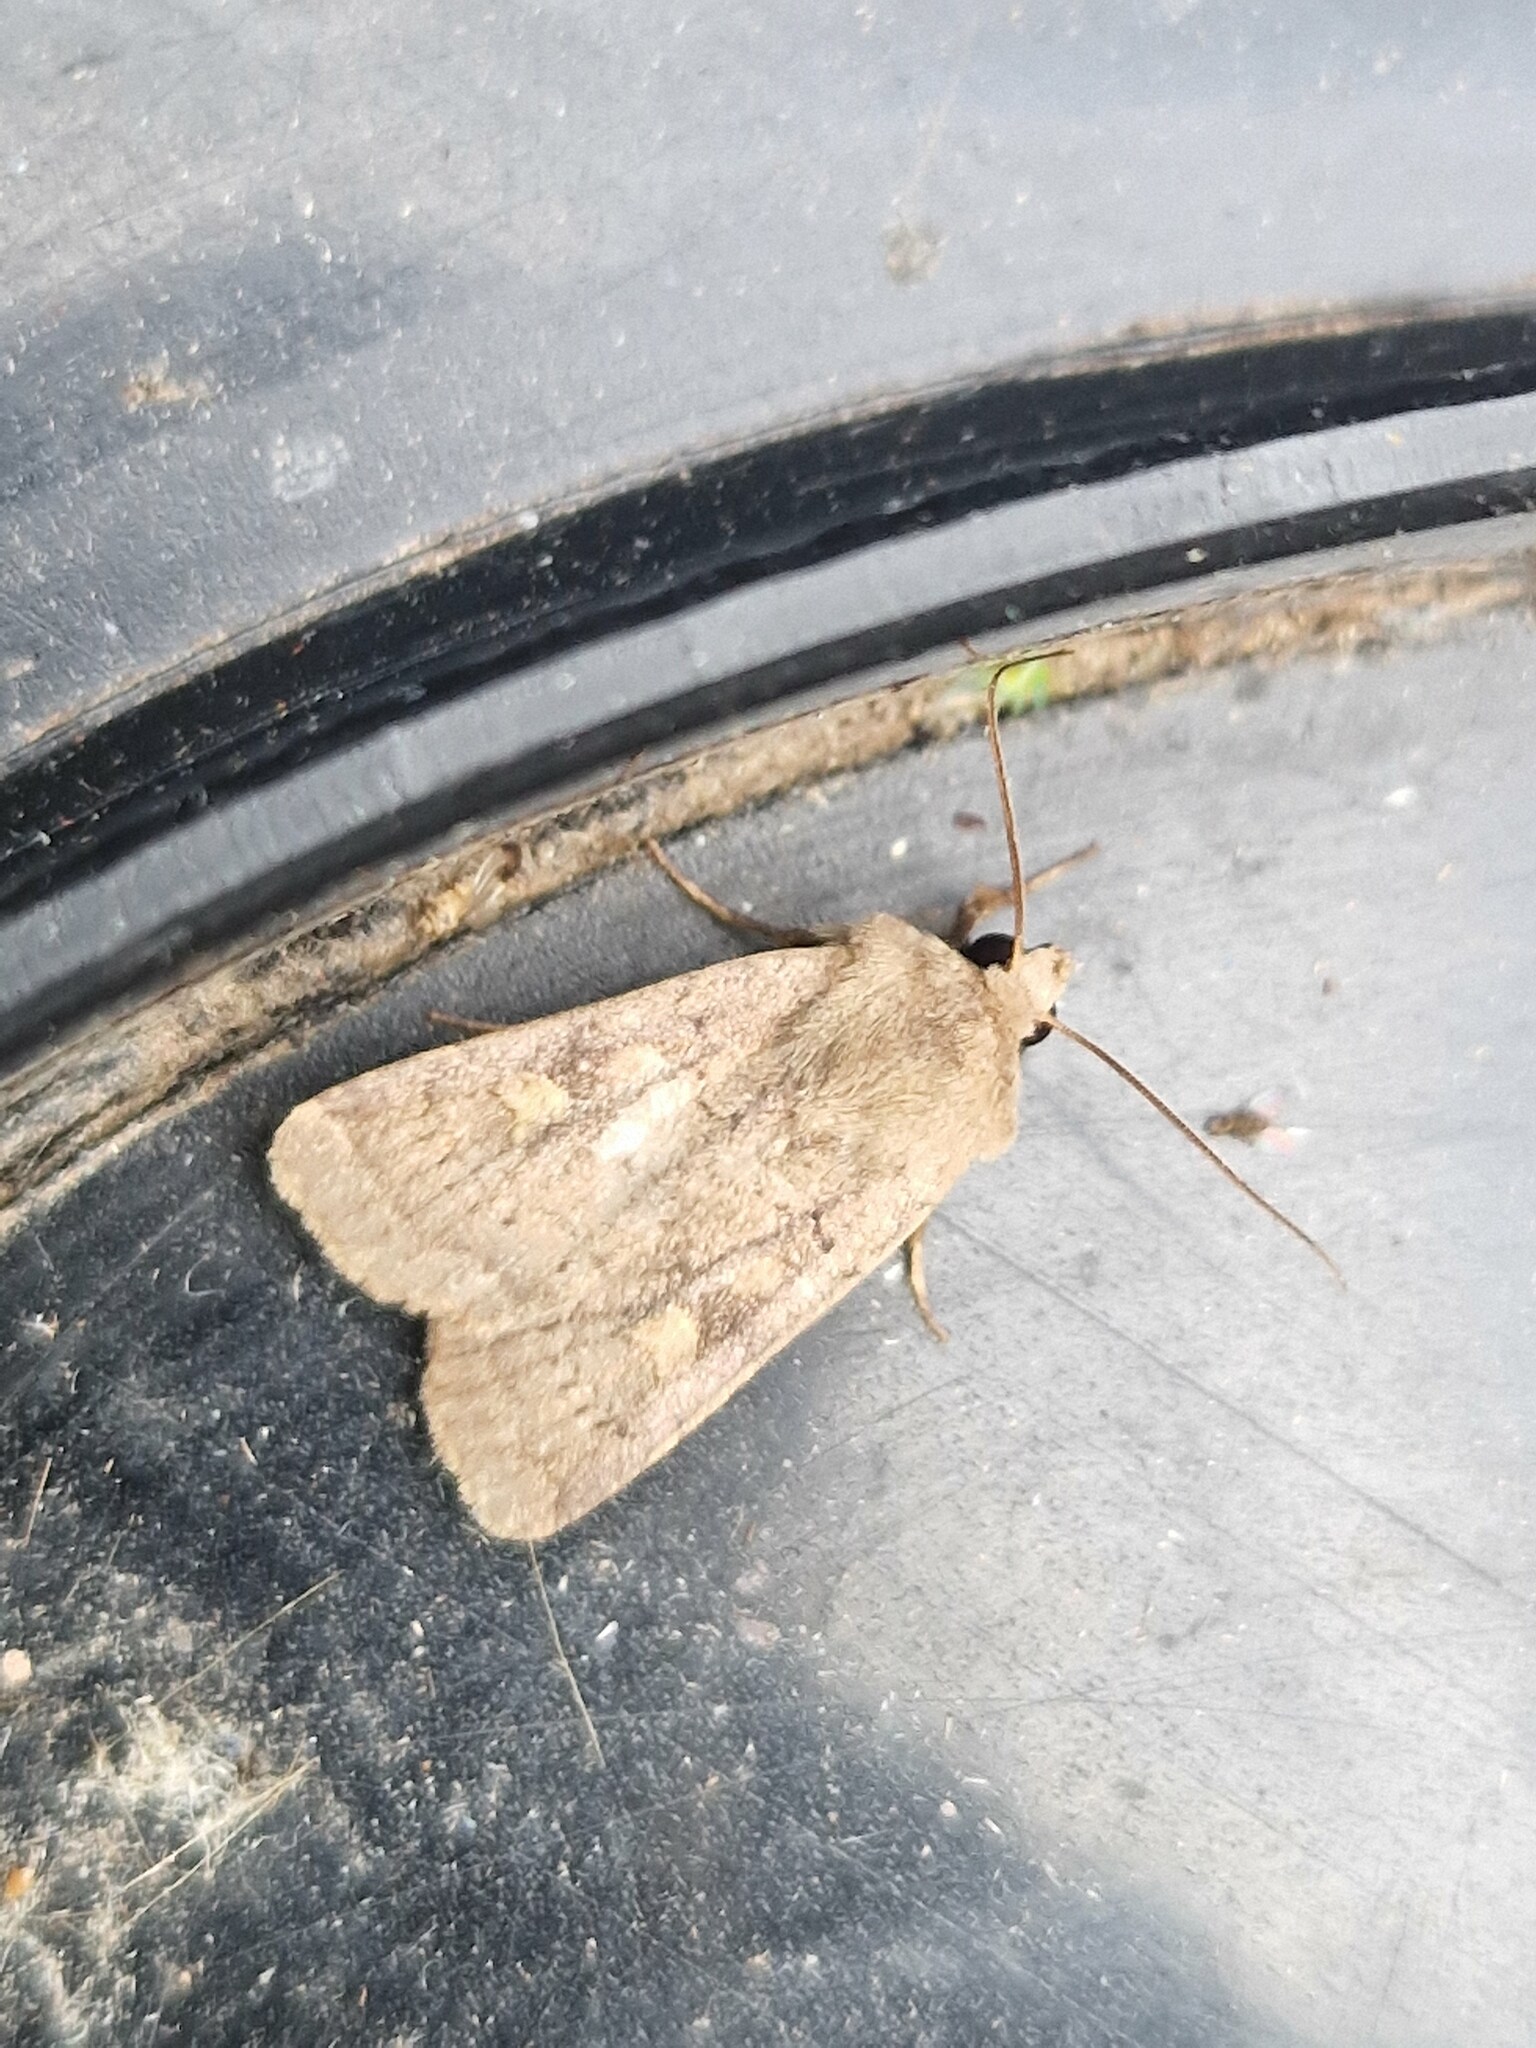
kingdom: Animalia
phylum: Arthropoda
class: Insecta
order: Lepidoptera
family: Noctuidae
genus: Xestia
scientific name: Xestia xanthographa
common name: Square-spot rustic
